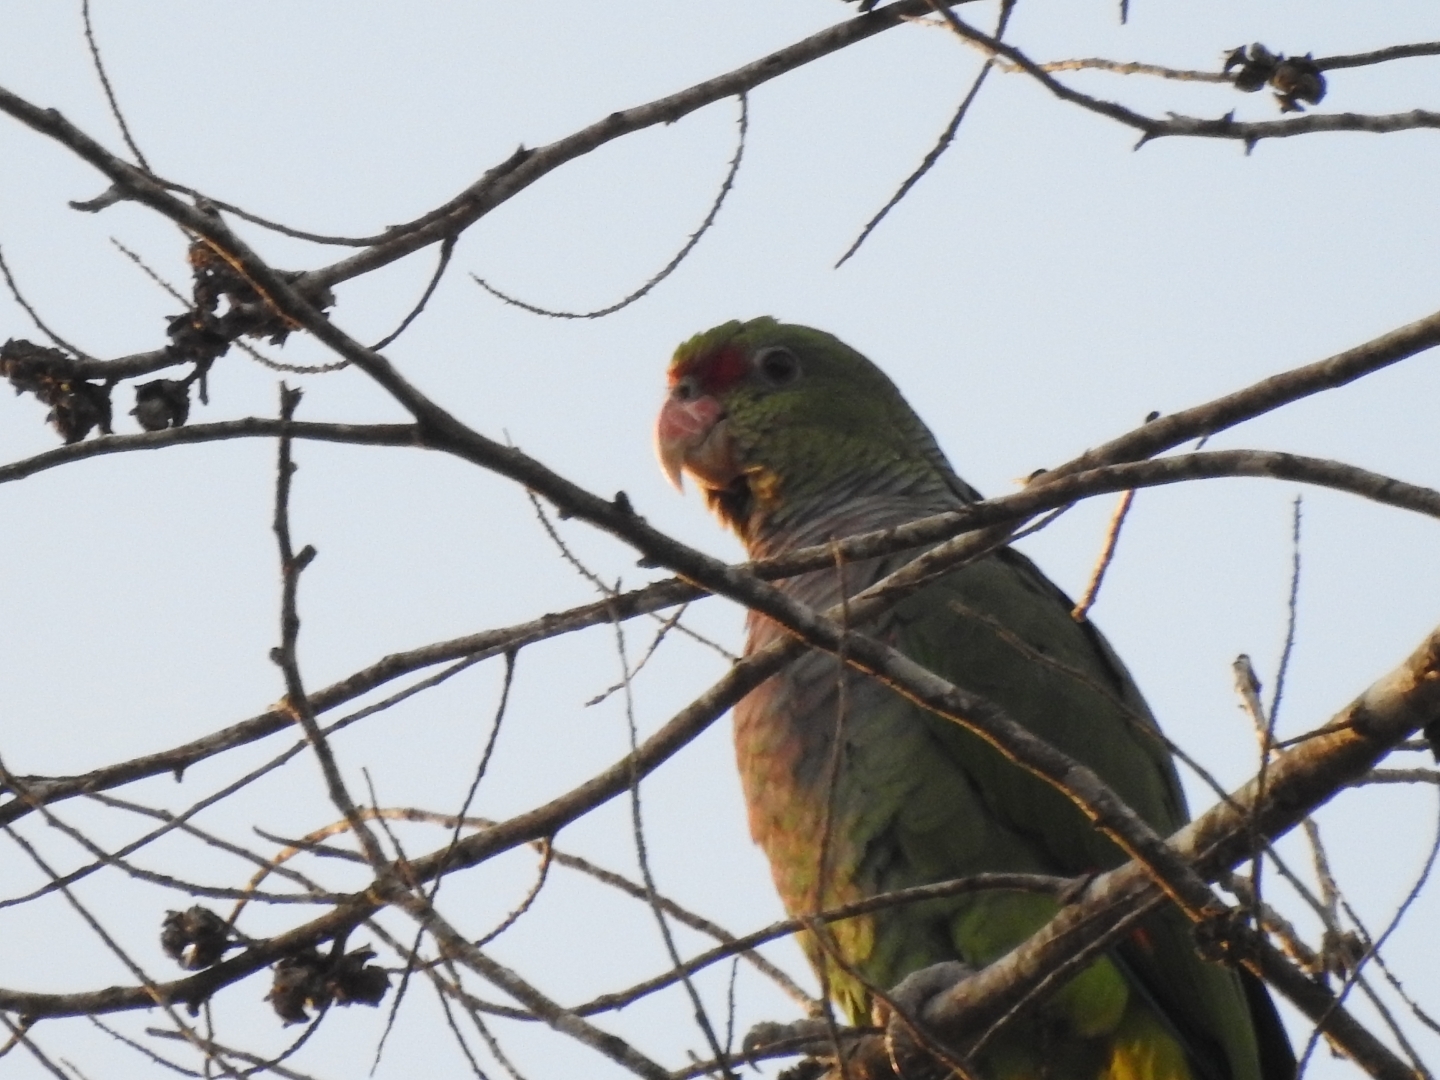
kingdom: Animalia
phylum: Chordata
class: Aves
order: Psittaciformes
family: Psittacidae
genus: Amazona
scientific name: Amazona vinacea
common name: Vinaceous-breasted amazon
